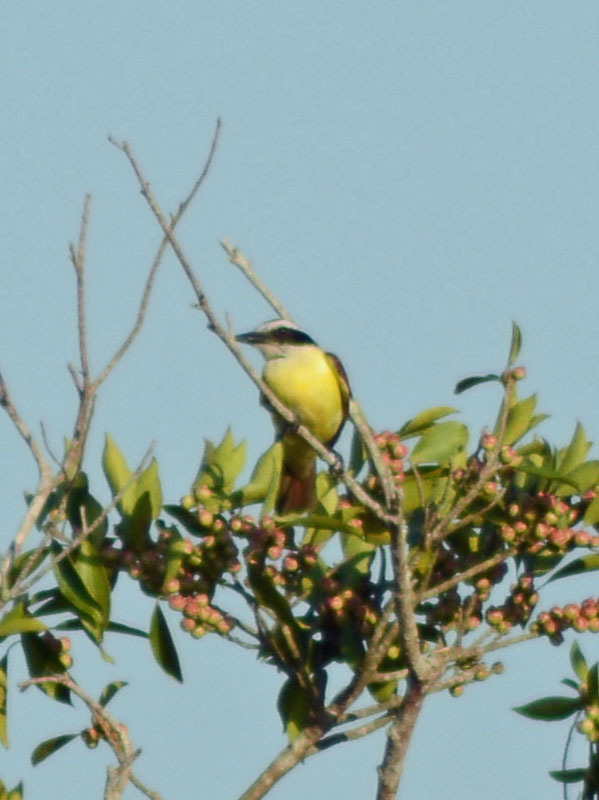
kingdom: Animalia
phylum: Chordata
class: Aves
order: Passeriformes
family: Tyrannidae
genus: Pitangus
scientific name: Pitangus sulphuratus
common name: Great kiskadee
